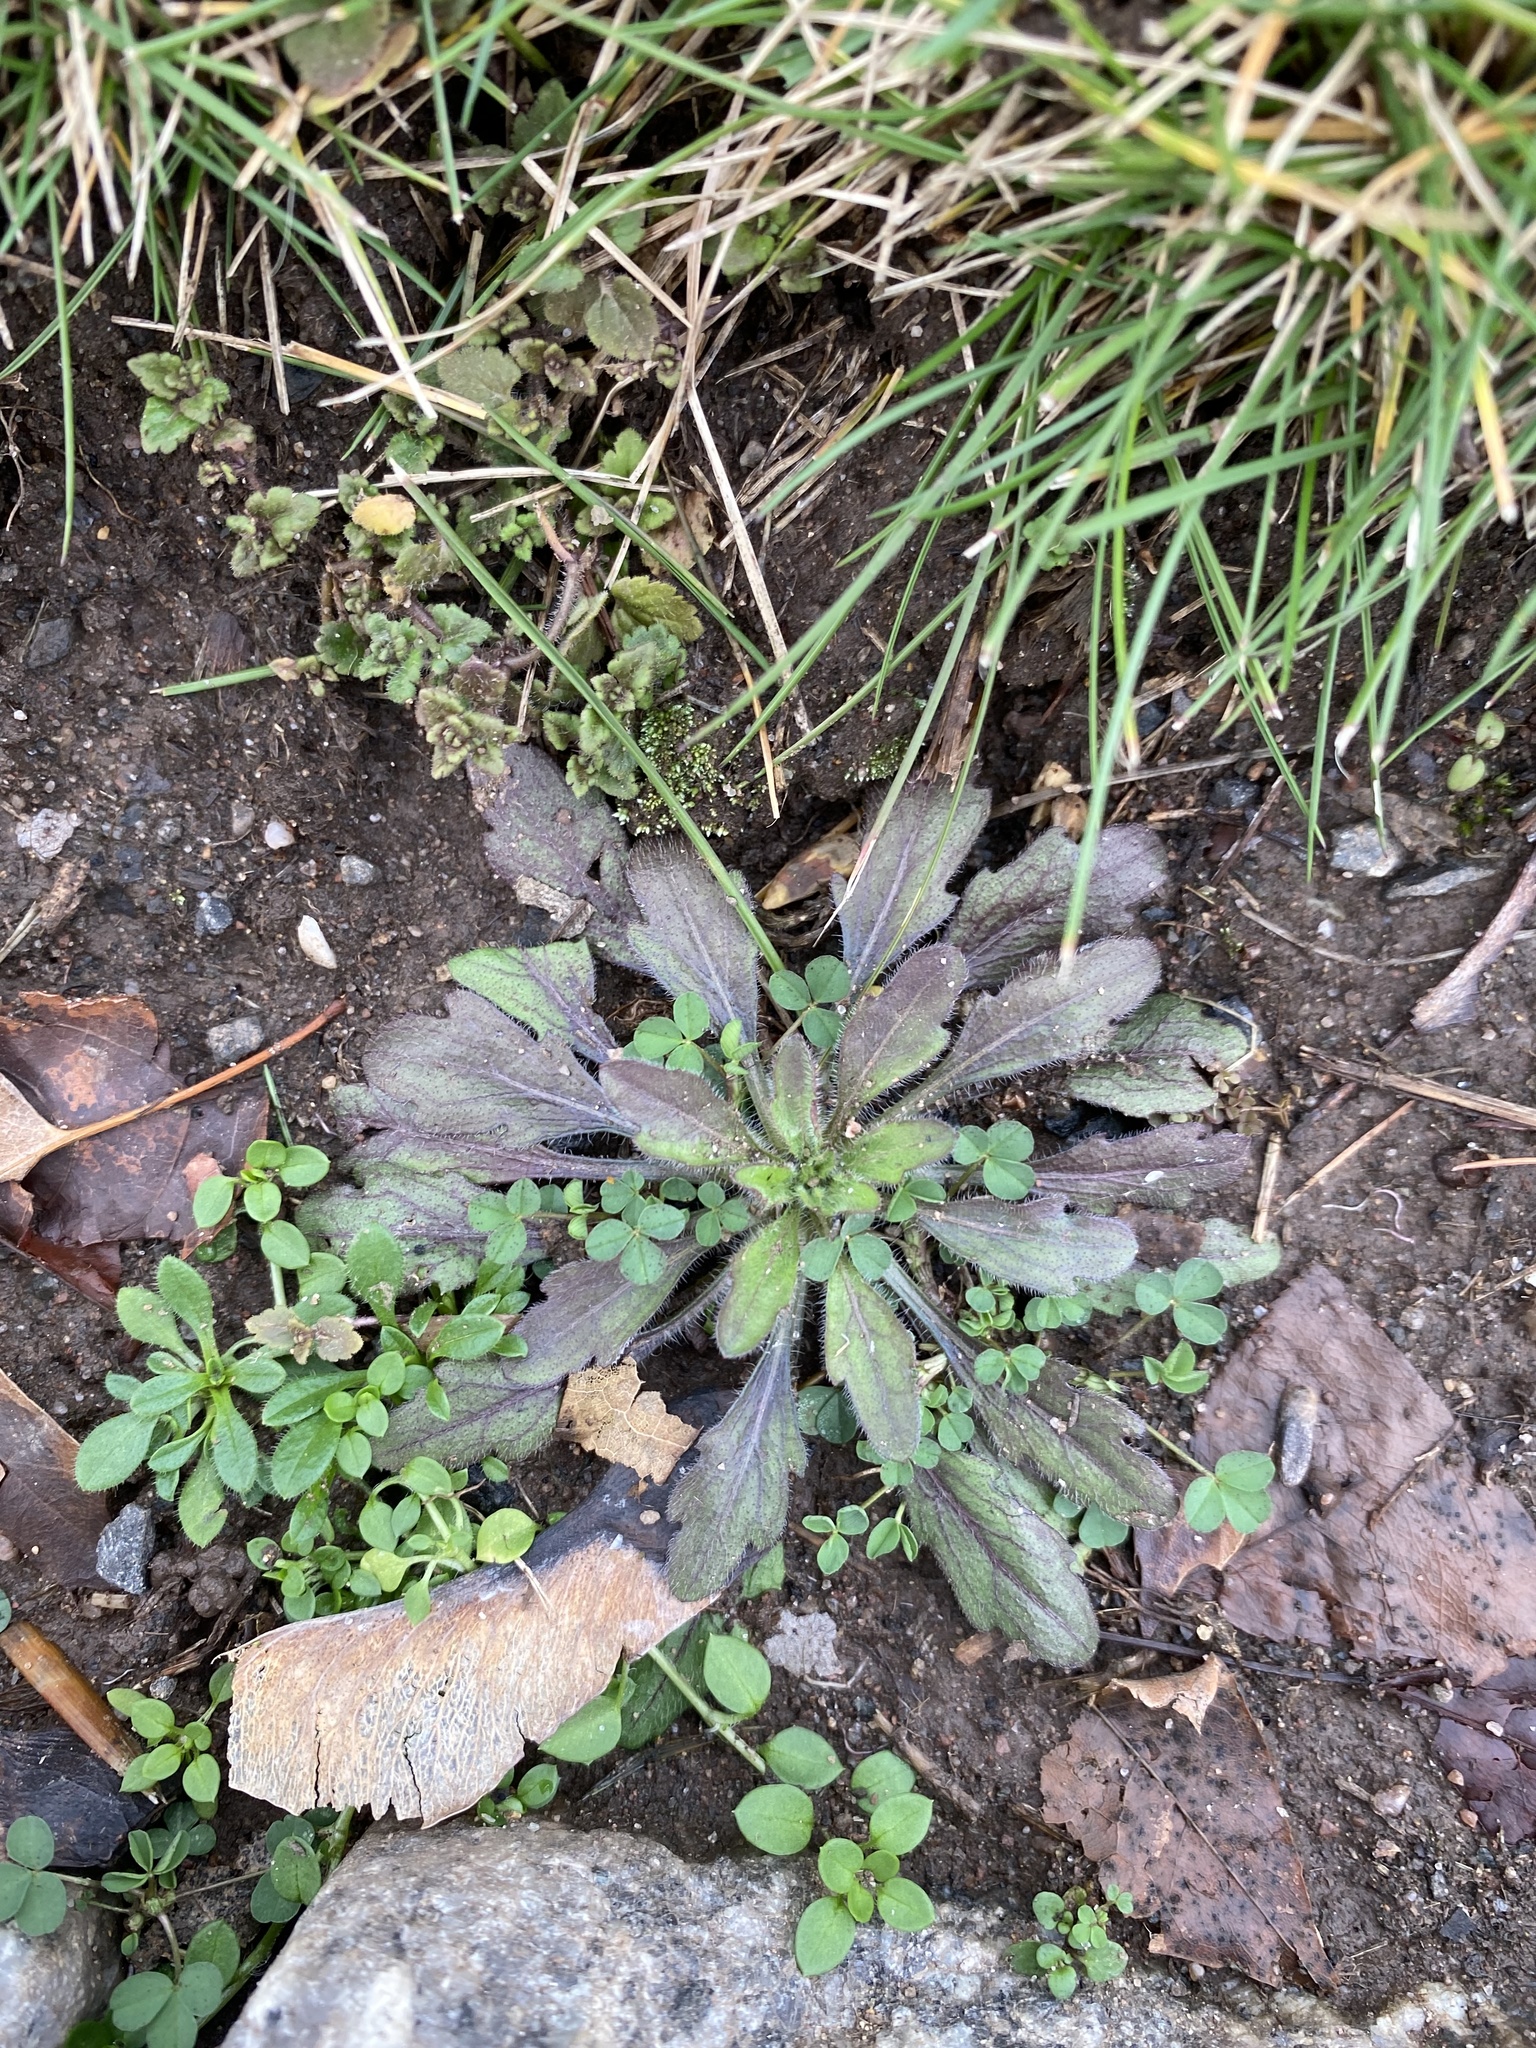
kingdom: Plantae
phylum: Tracheophyta
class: Magnoliopsida
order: Asterales
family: Asteraceae
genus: Erigeron
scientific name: Erigeron canadensis
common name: Canadian fleabane
